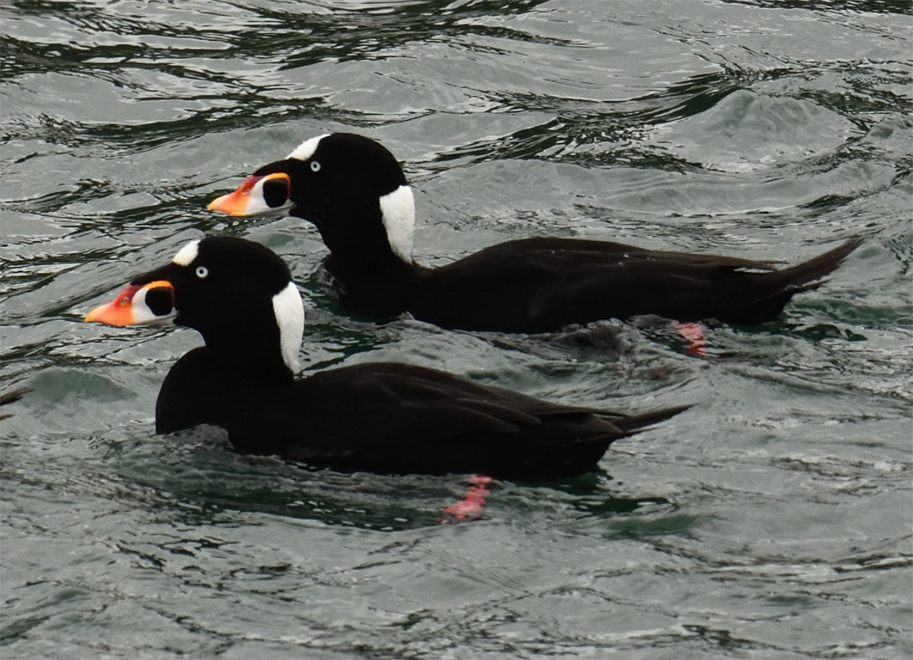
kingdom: Animalia
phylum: Chordata
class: Aves
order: Anseriformes
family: Anatidae
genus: Melanitta
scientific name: Melanitta perspicillata
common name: Surf scoter
